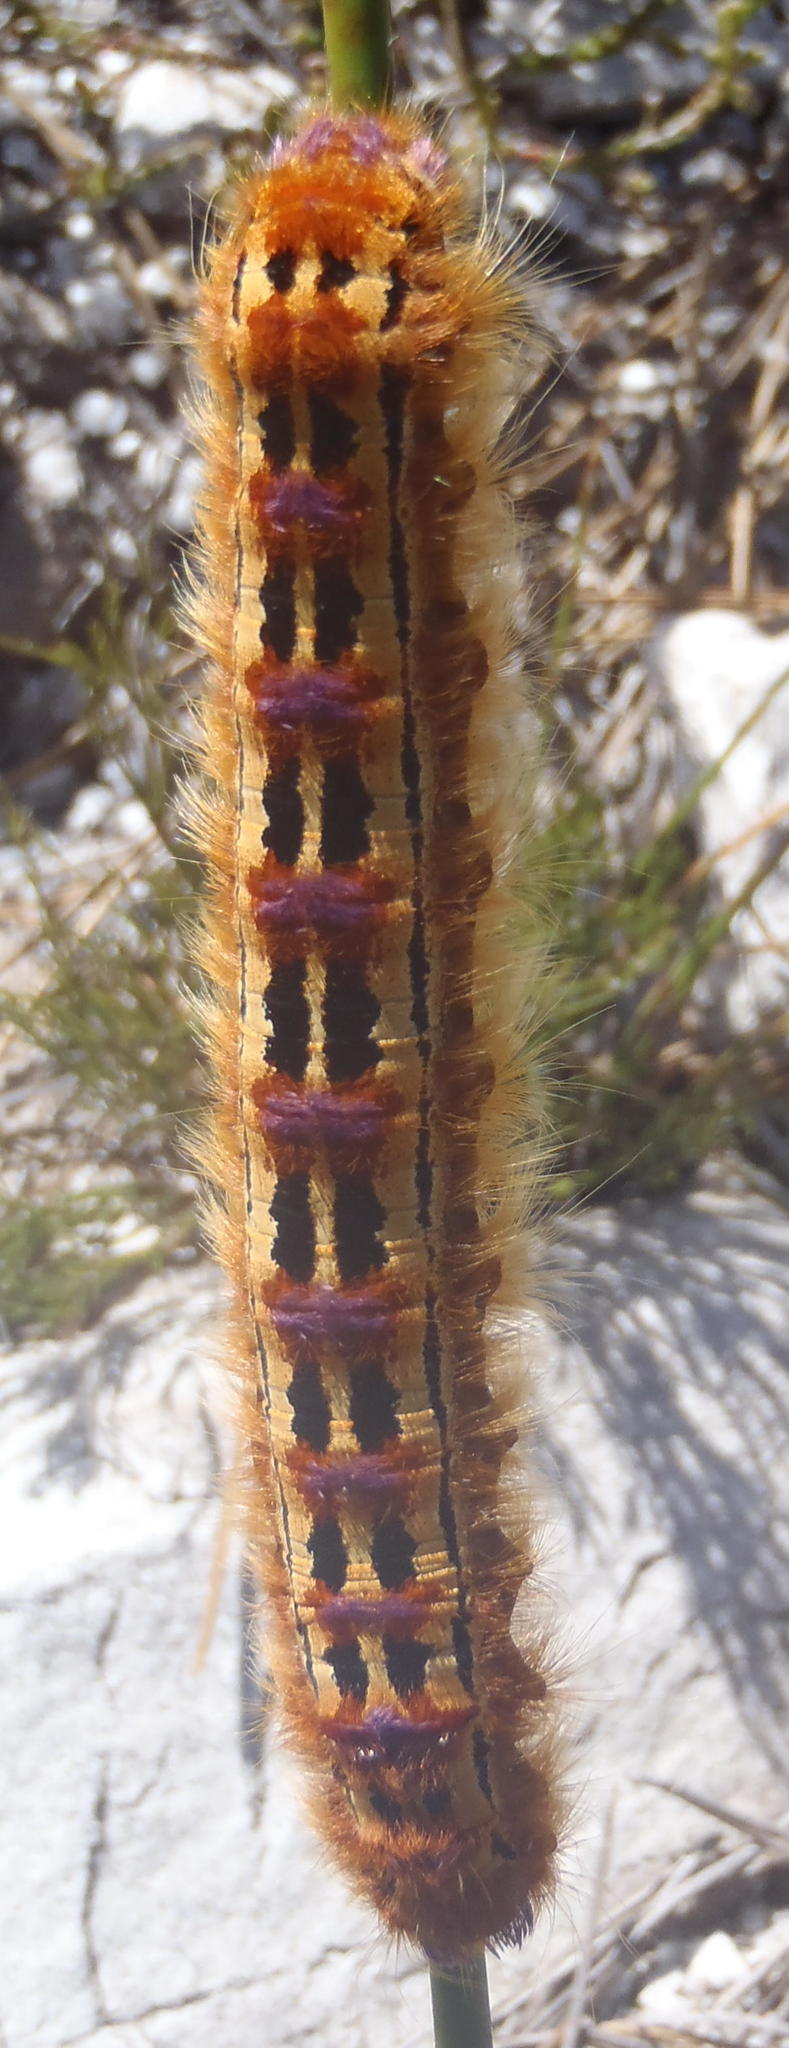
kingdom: Animalia
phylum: Arthropoda
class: Insecta
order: Lepidoptera
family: Lasiocampidae
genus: Eutricha
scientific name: Eutricha bifascia
